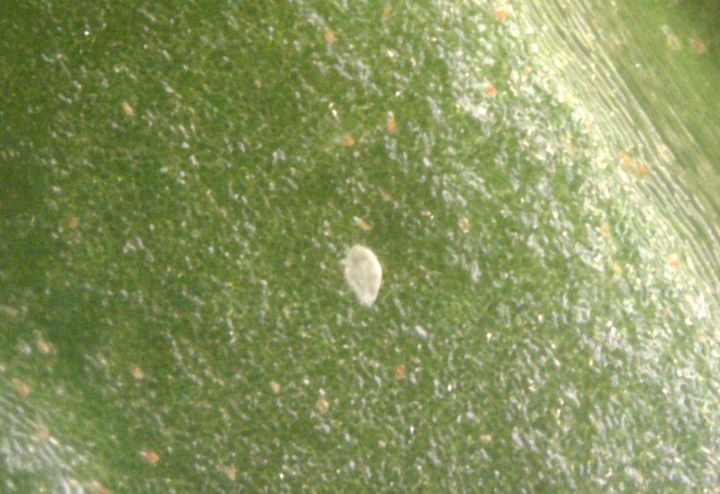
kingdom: Animalia
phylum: Arthropoda
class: Arachnida
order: Trombidiformes
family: Tarsonemidae
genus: Polyphagotarsonemus
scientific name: Polyphagotarsonemus latus
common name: Mite
